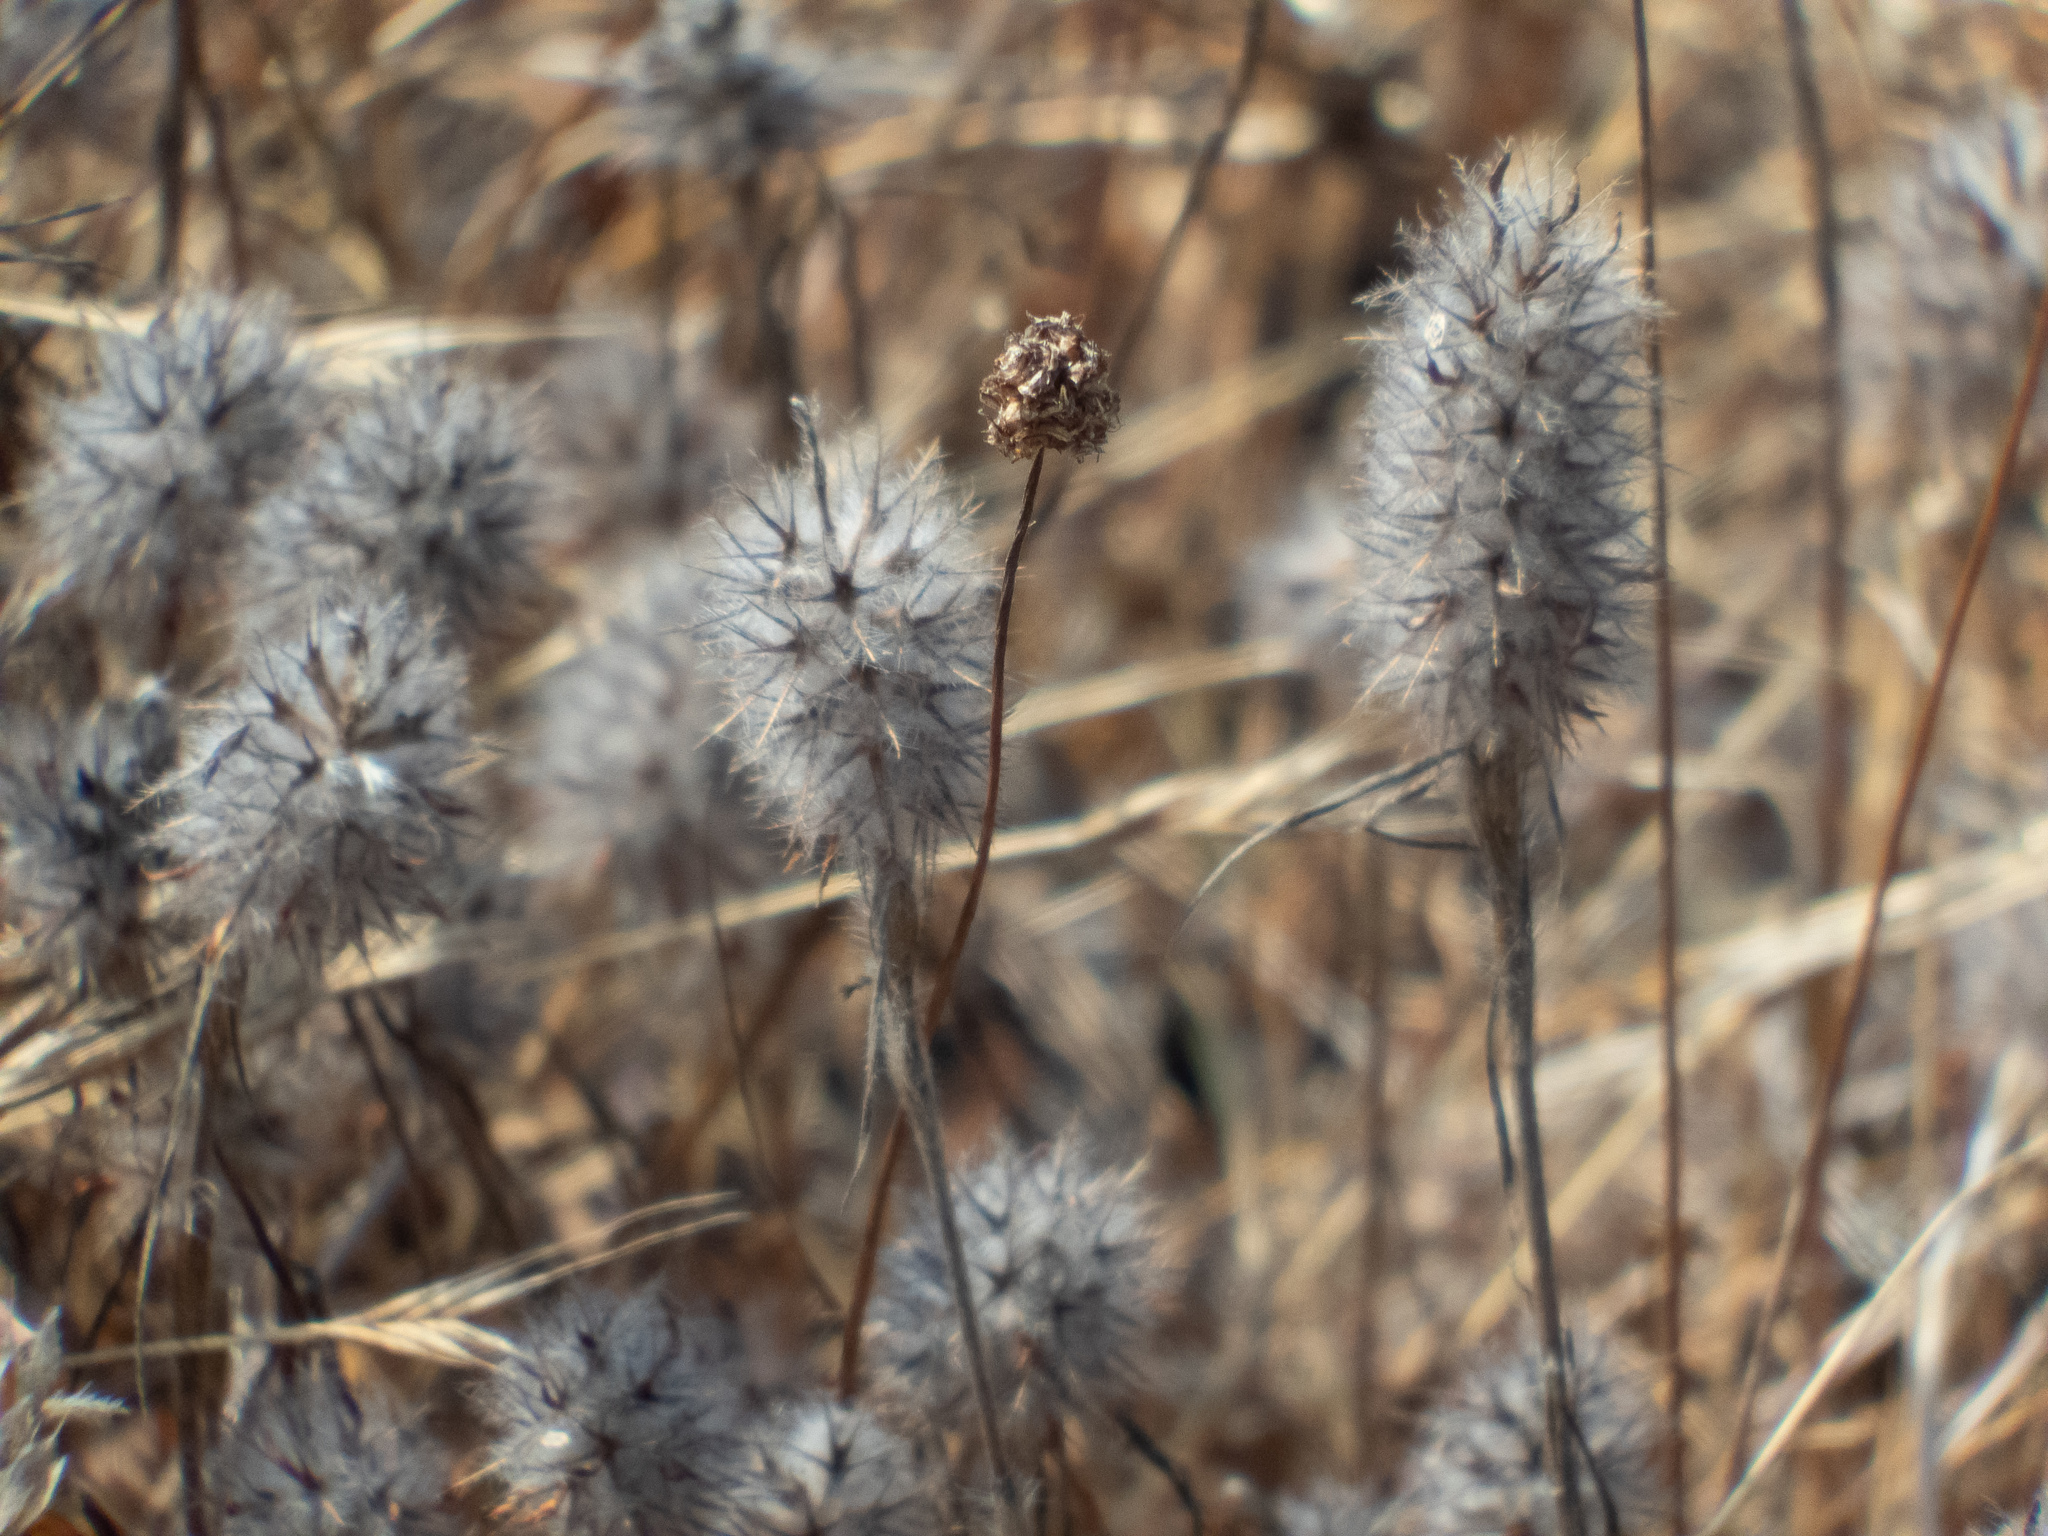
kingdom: Plantae
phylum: Tracheophyta
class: Magnoliopsida
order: Fabales
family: Fabaceae
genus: Trifolium
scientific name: Trifolium angustifolium
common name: Narrow clover
